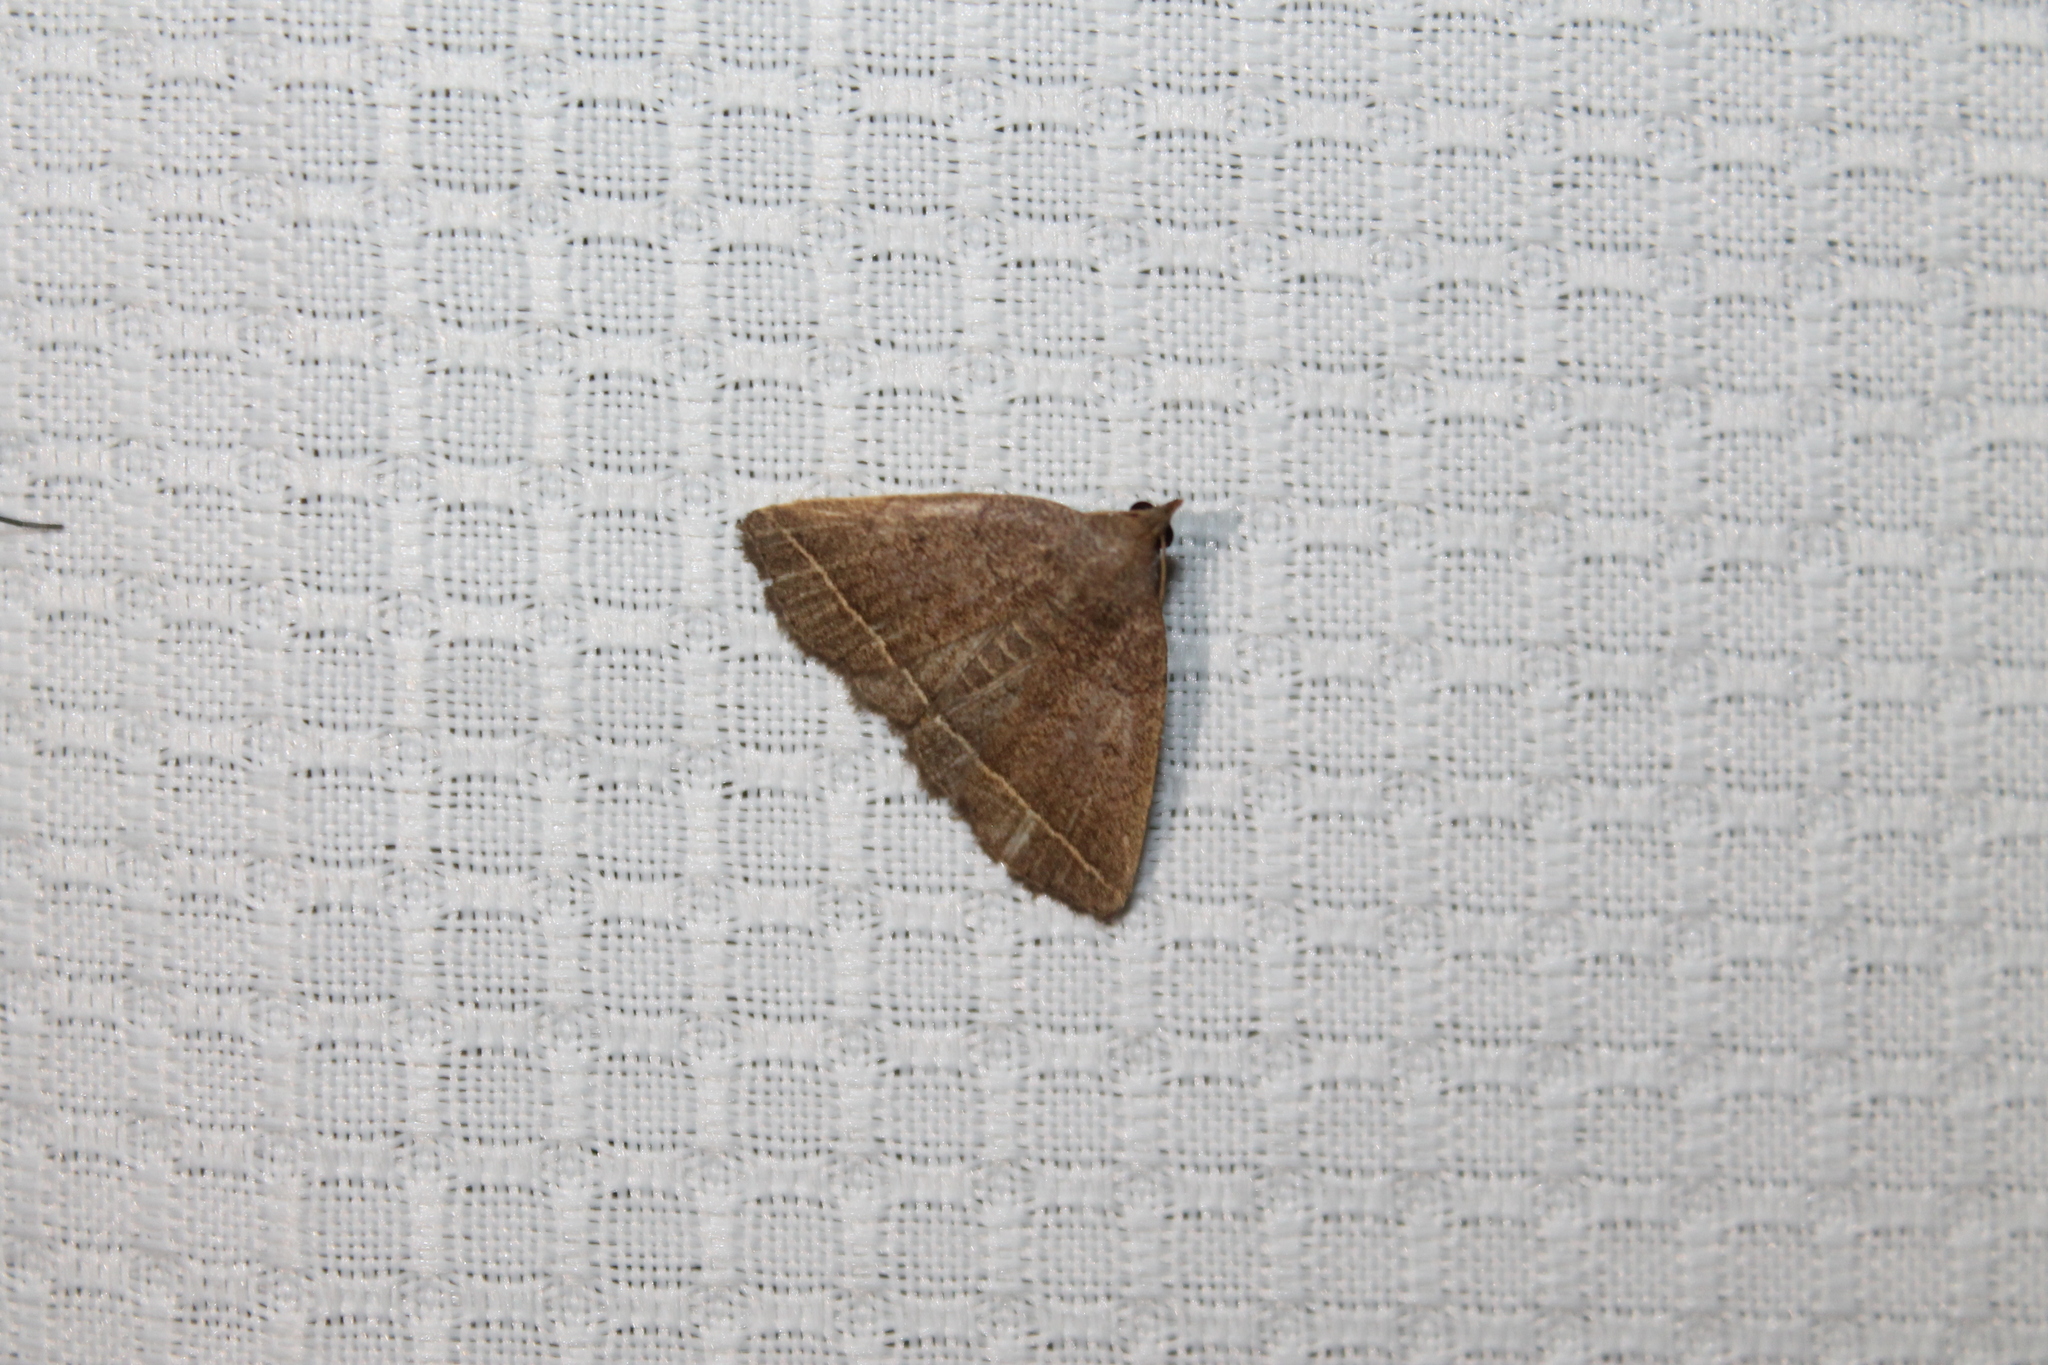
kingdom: Animalia
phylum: Arthropoda
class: Insecta
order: Lepidoptera
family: Erebidae
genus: Zanclognatha
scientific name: Zanclognatha marcidilinea
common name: Yellowish fan-foot
